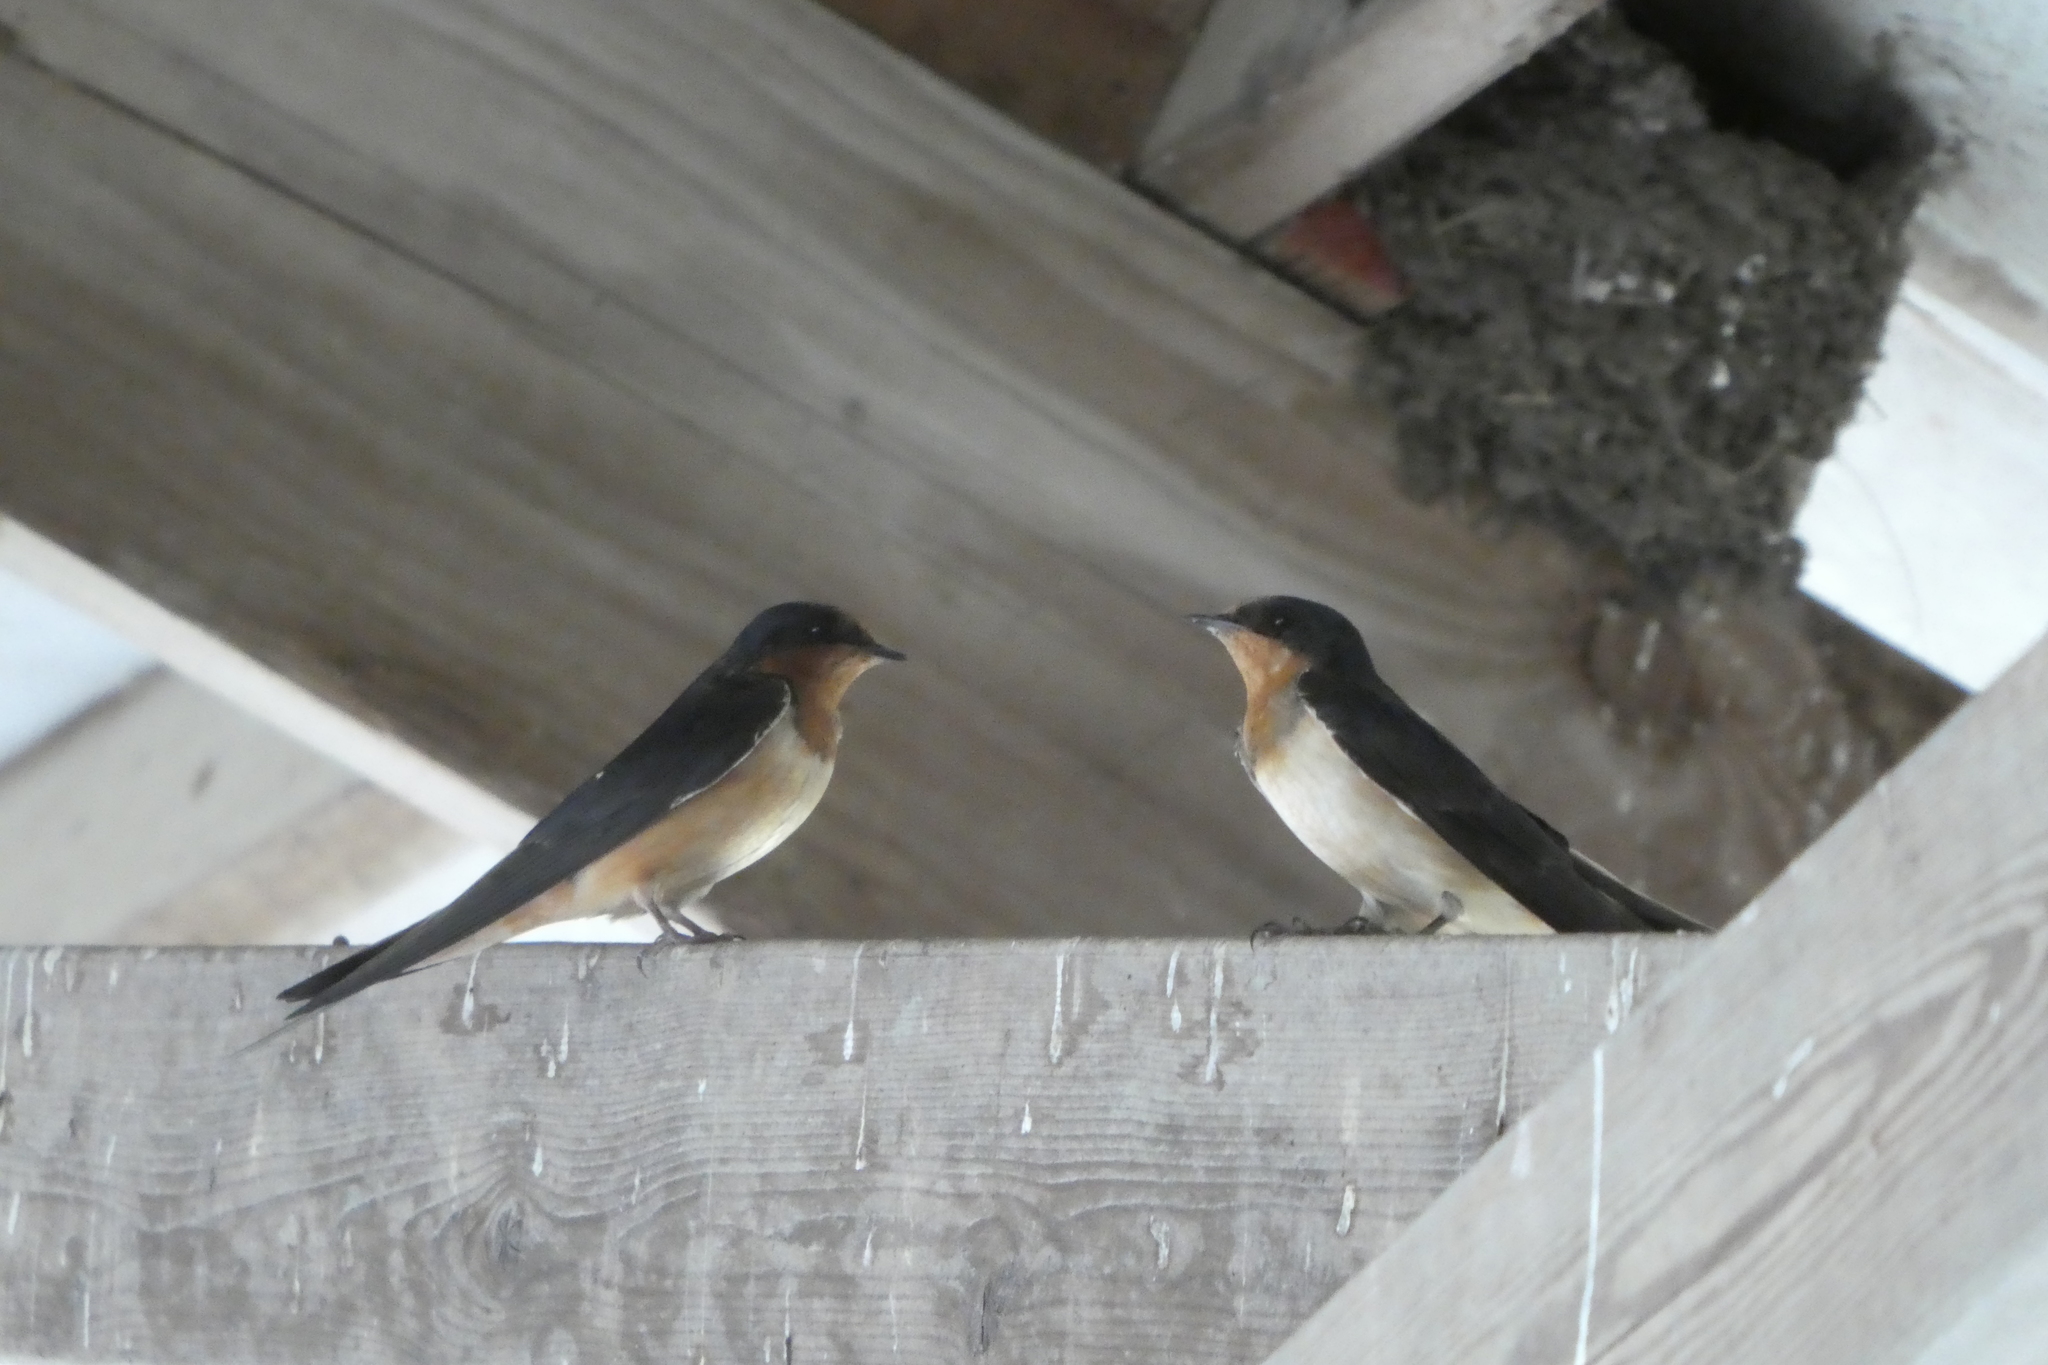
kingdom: Animalia
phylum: Chordata
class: Aves
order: Passeriformes
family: Hirundinidae
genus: Hirundo
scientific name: Hirundo rustica
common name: Barn swallow
